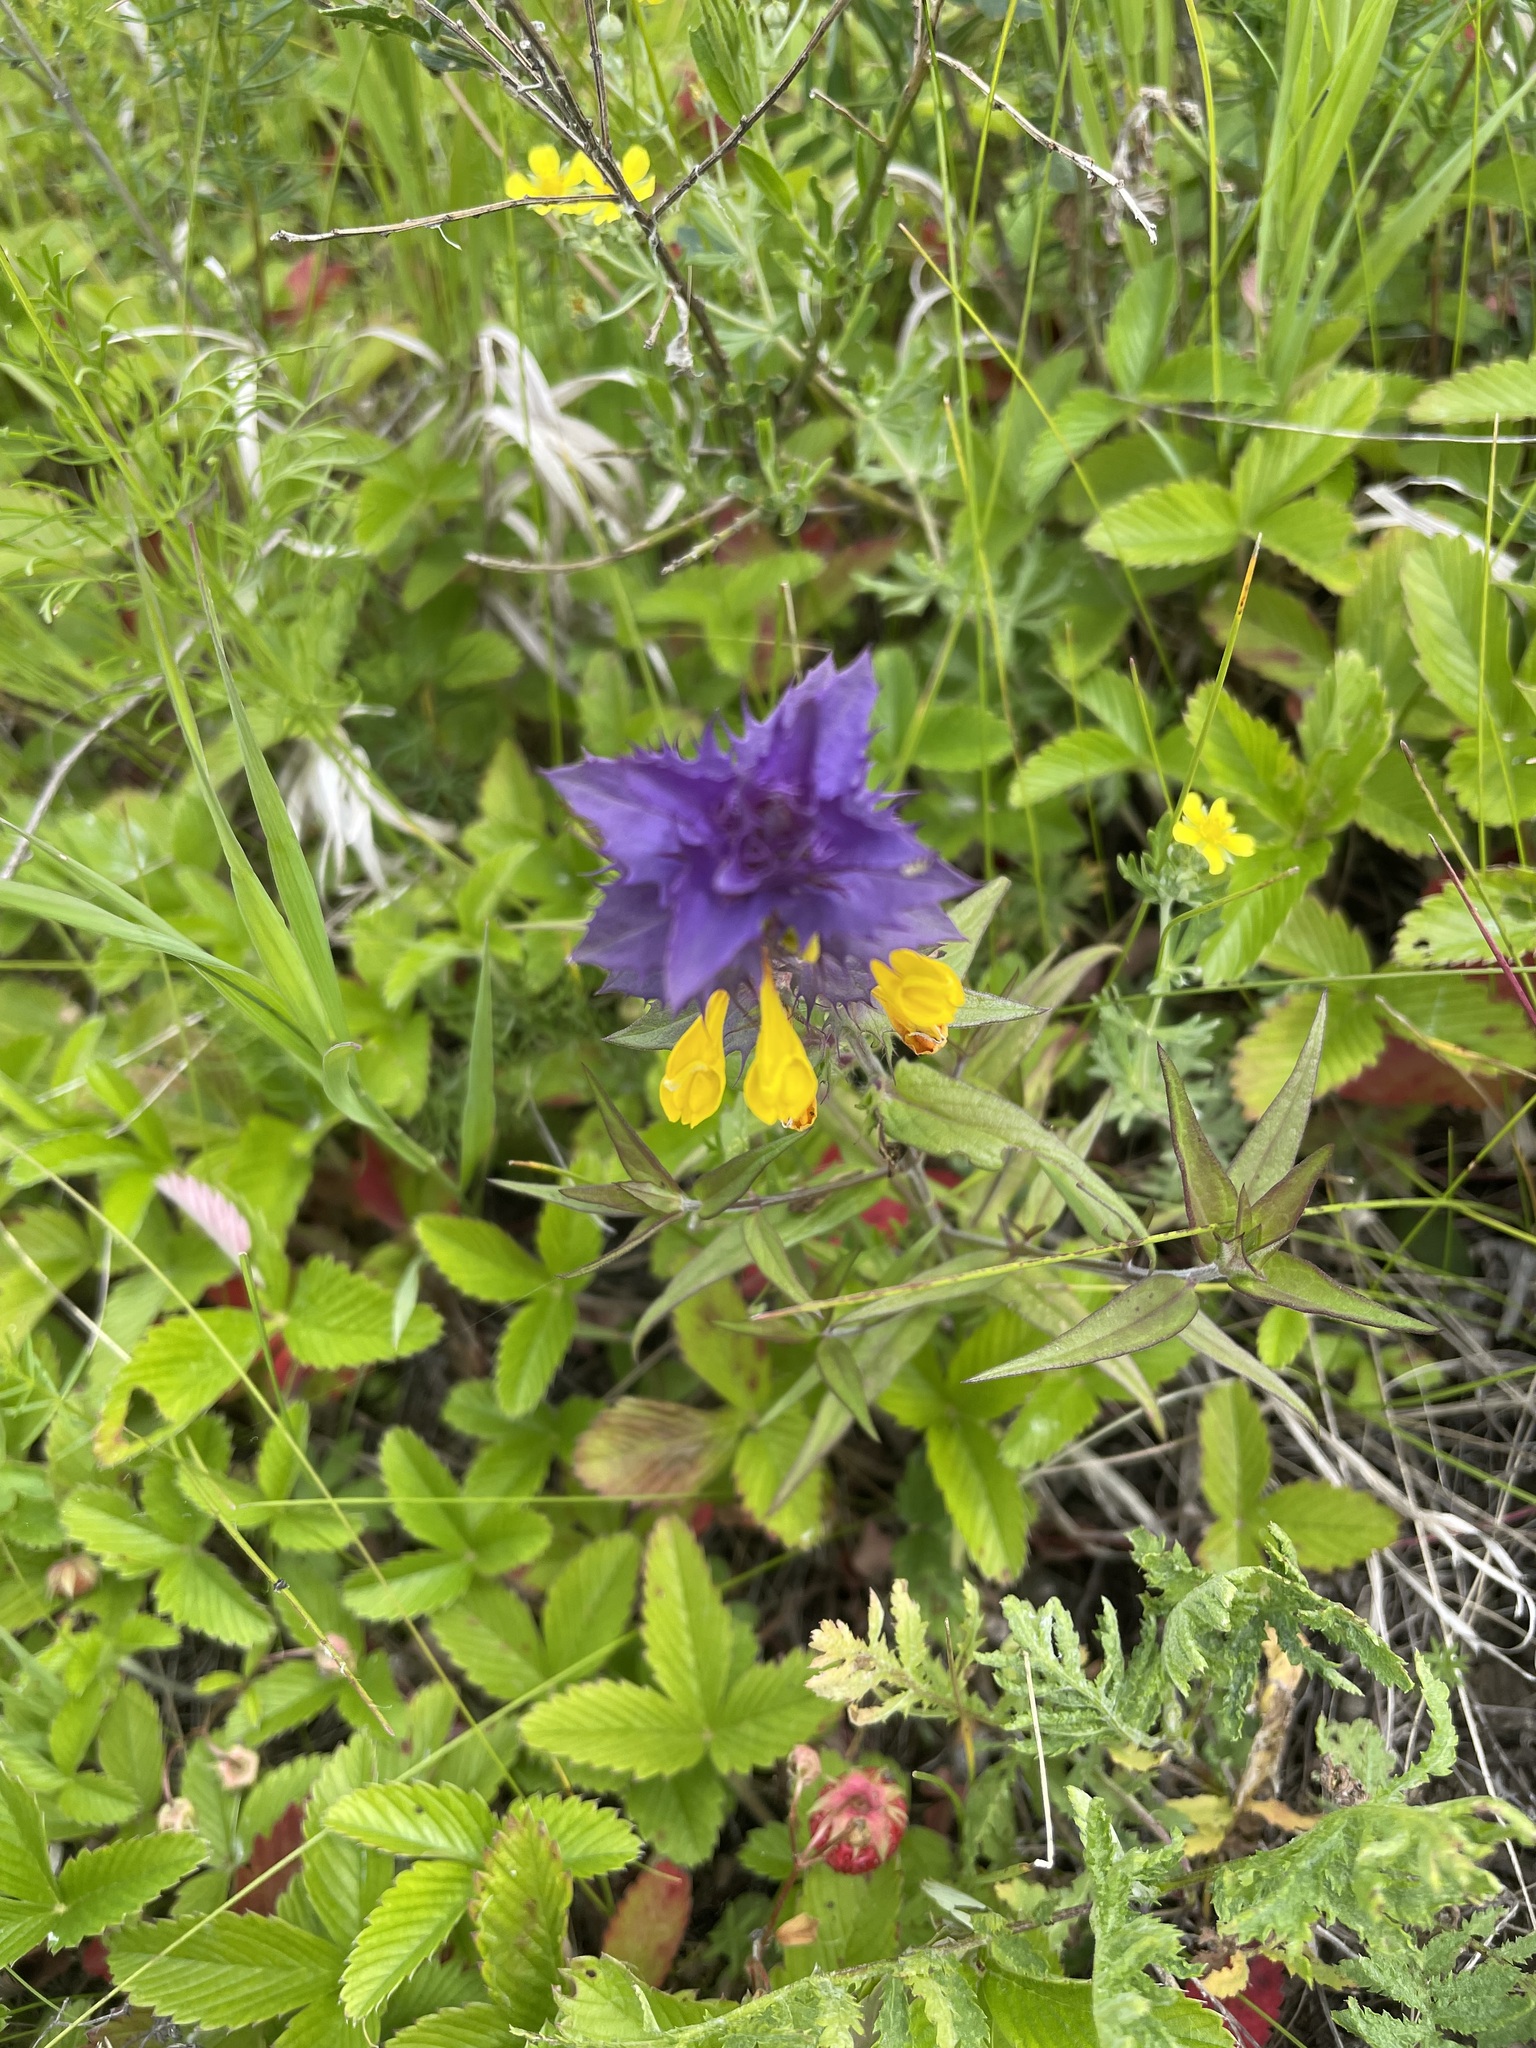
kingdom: Plantae
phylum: Tracheophyta
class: Magnoliopsida
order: Lamiales
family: Orobanchaceae
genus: Melampyrum
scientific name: Melampyrum nemorosum
